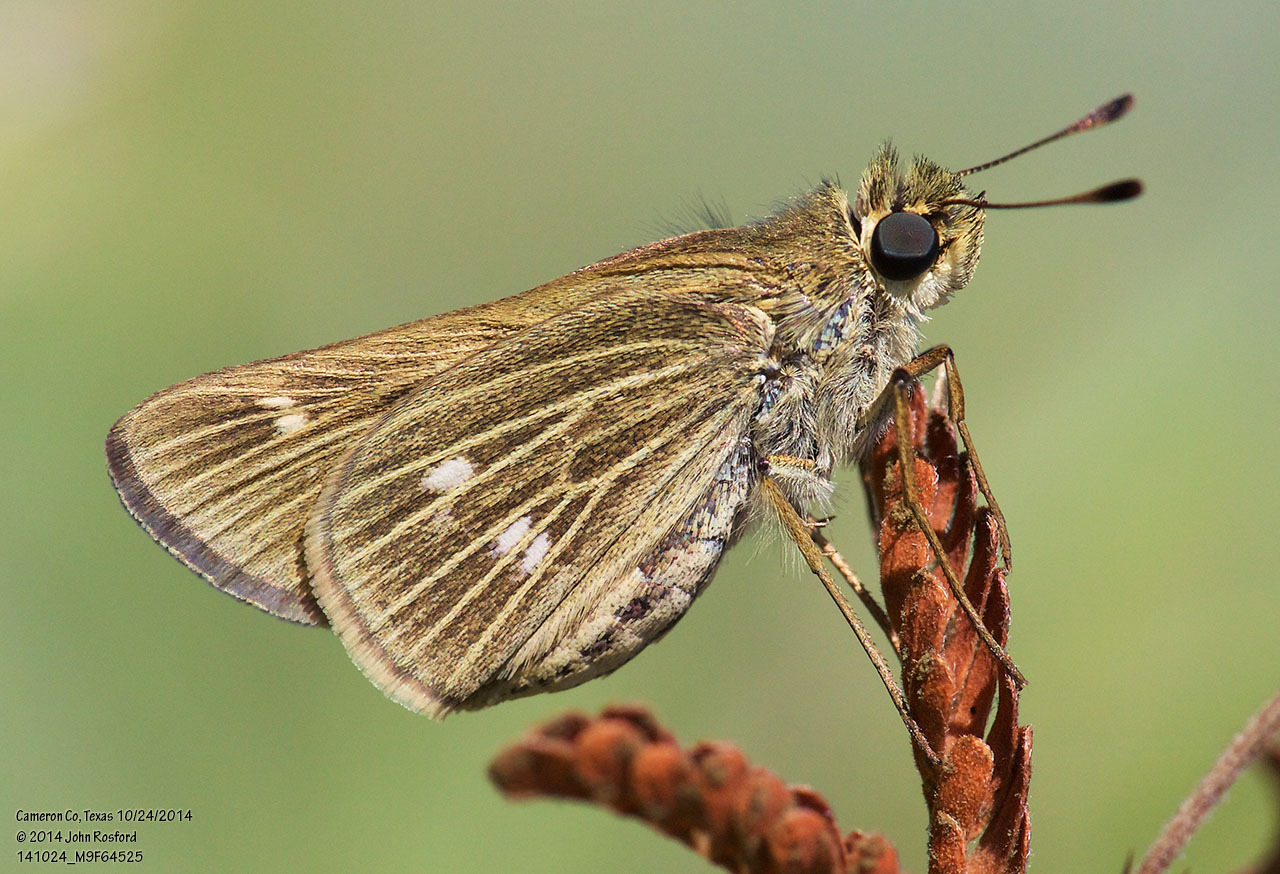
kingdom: Animalia
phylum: Arthropoda
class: Insecta
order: Lepidoptera
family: Hesperiidae
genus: Panoquina
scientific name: Panoquina panoquinoides
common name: Beach skipper
